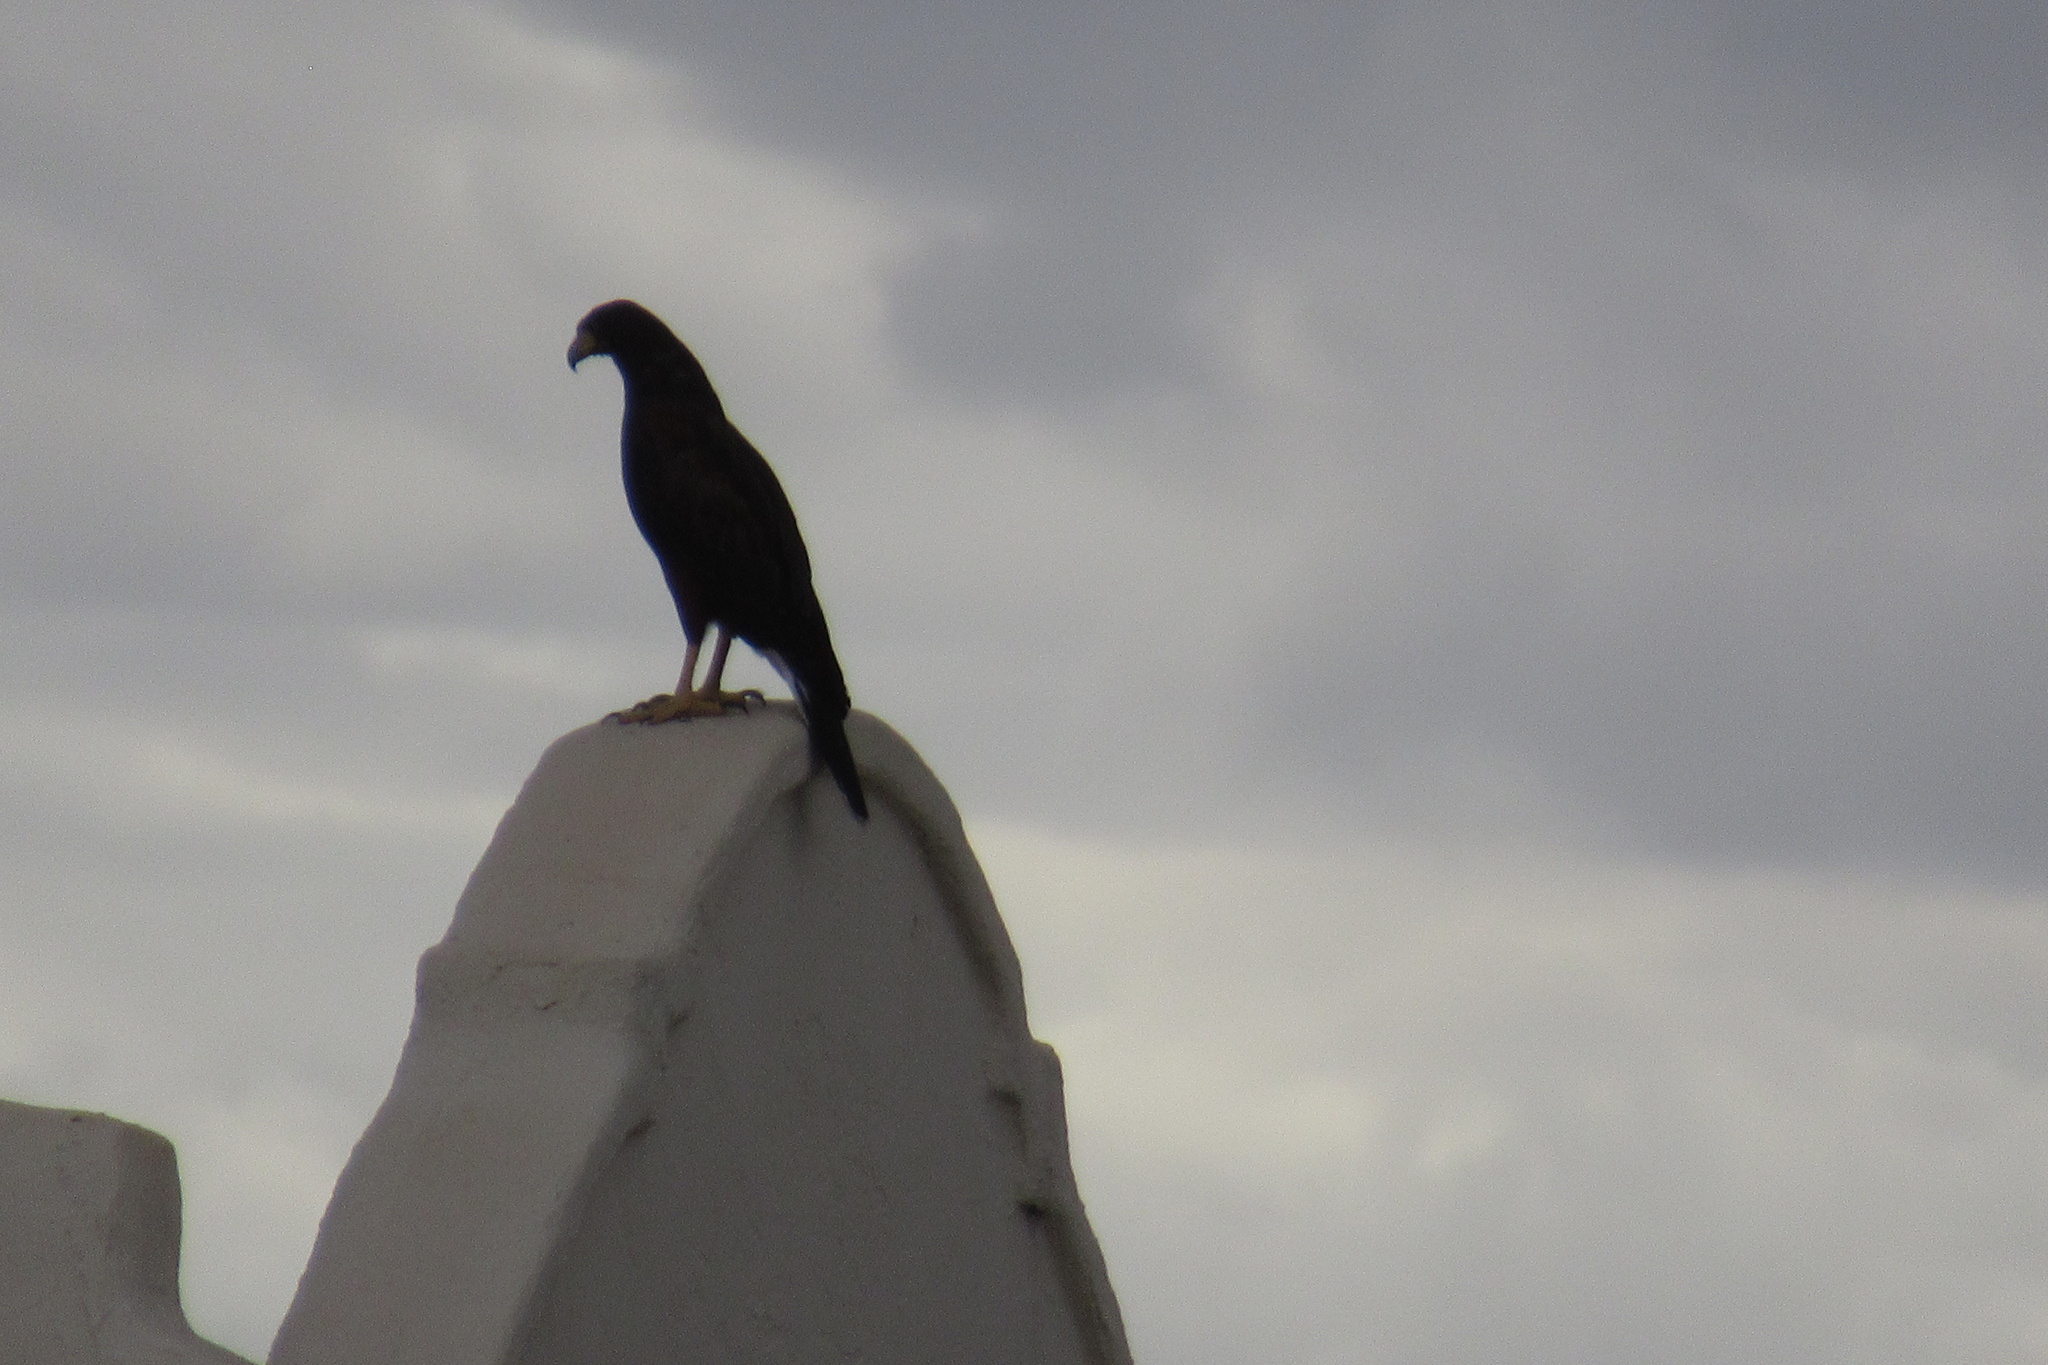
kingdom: Animalia
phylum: Chordata
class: Aves
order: Accipitriformes
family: Accipitridae
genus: Parabuteo
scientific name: Parabuteo unicinctus
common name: Harris's hawk
